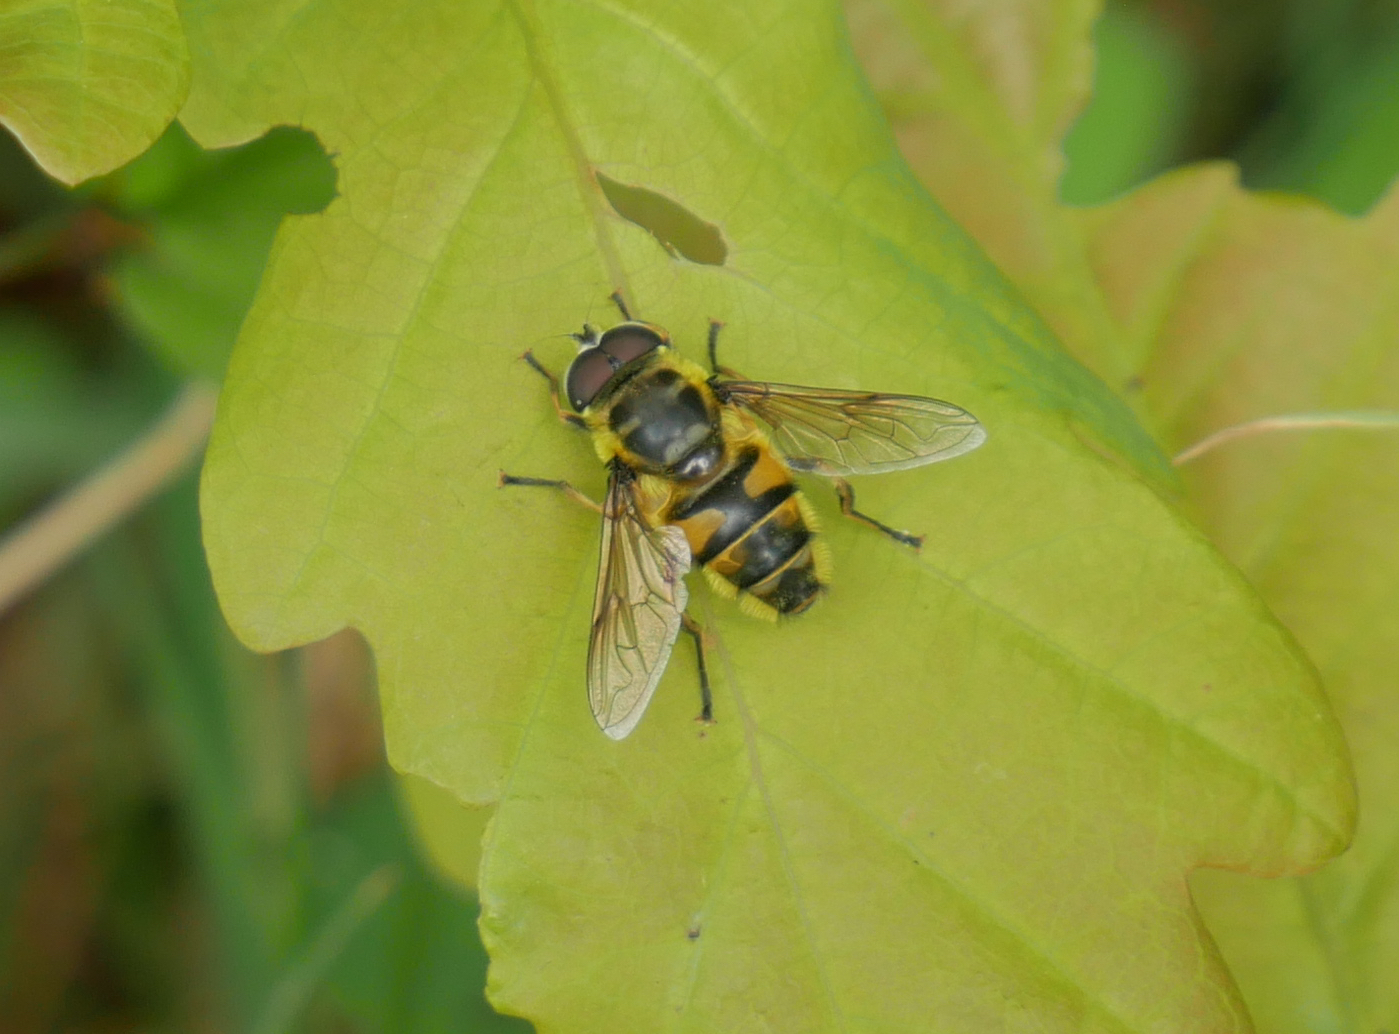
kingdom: Animalia
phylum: Arthropoda
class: Insecta
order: Diptera
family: Syrphidae
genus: Myathropa
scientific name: Myathropa florea
